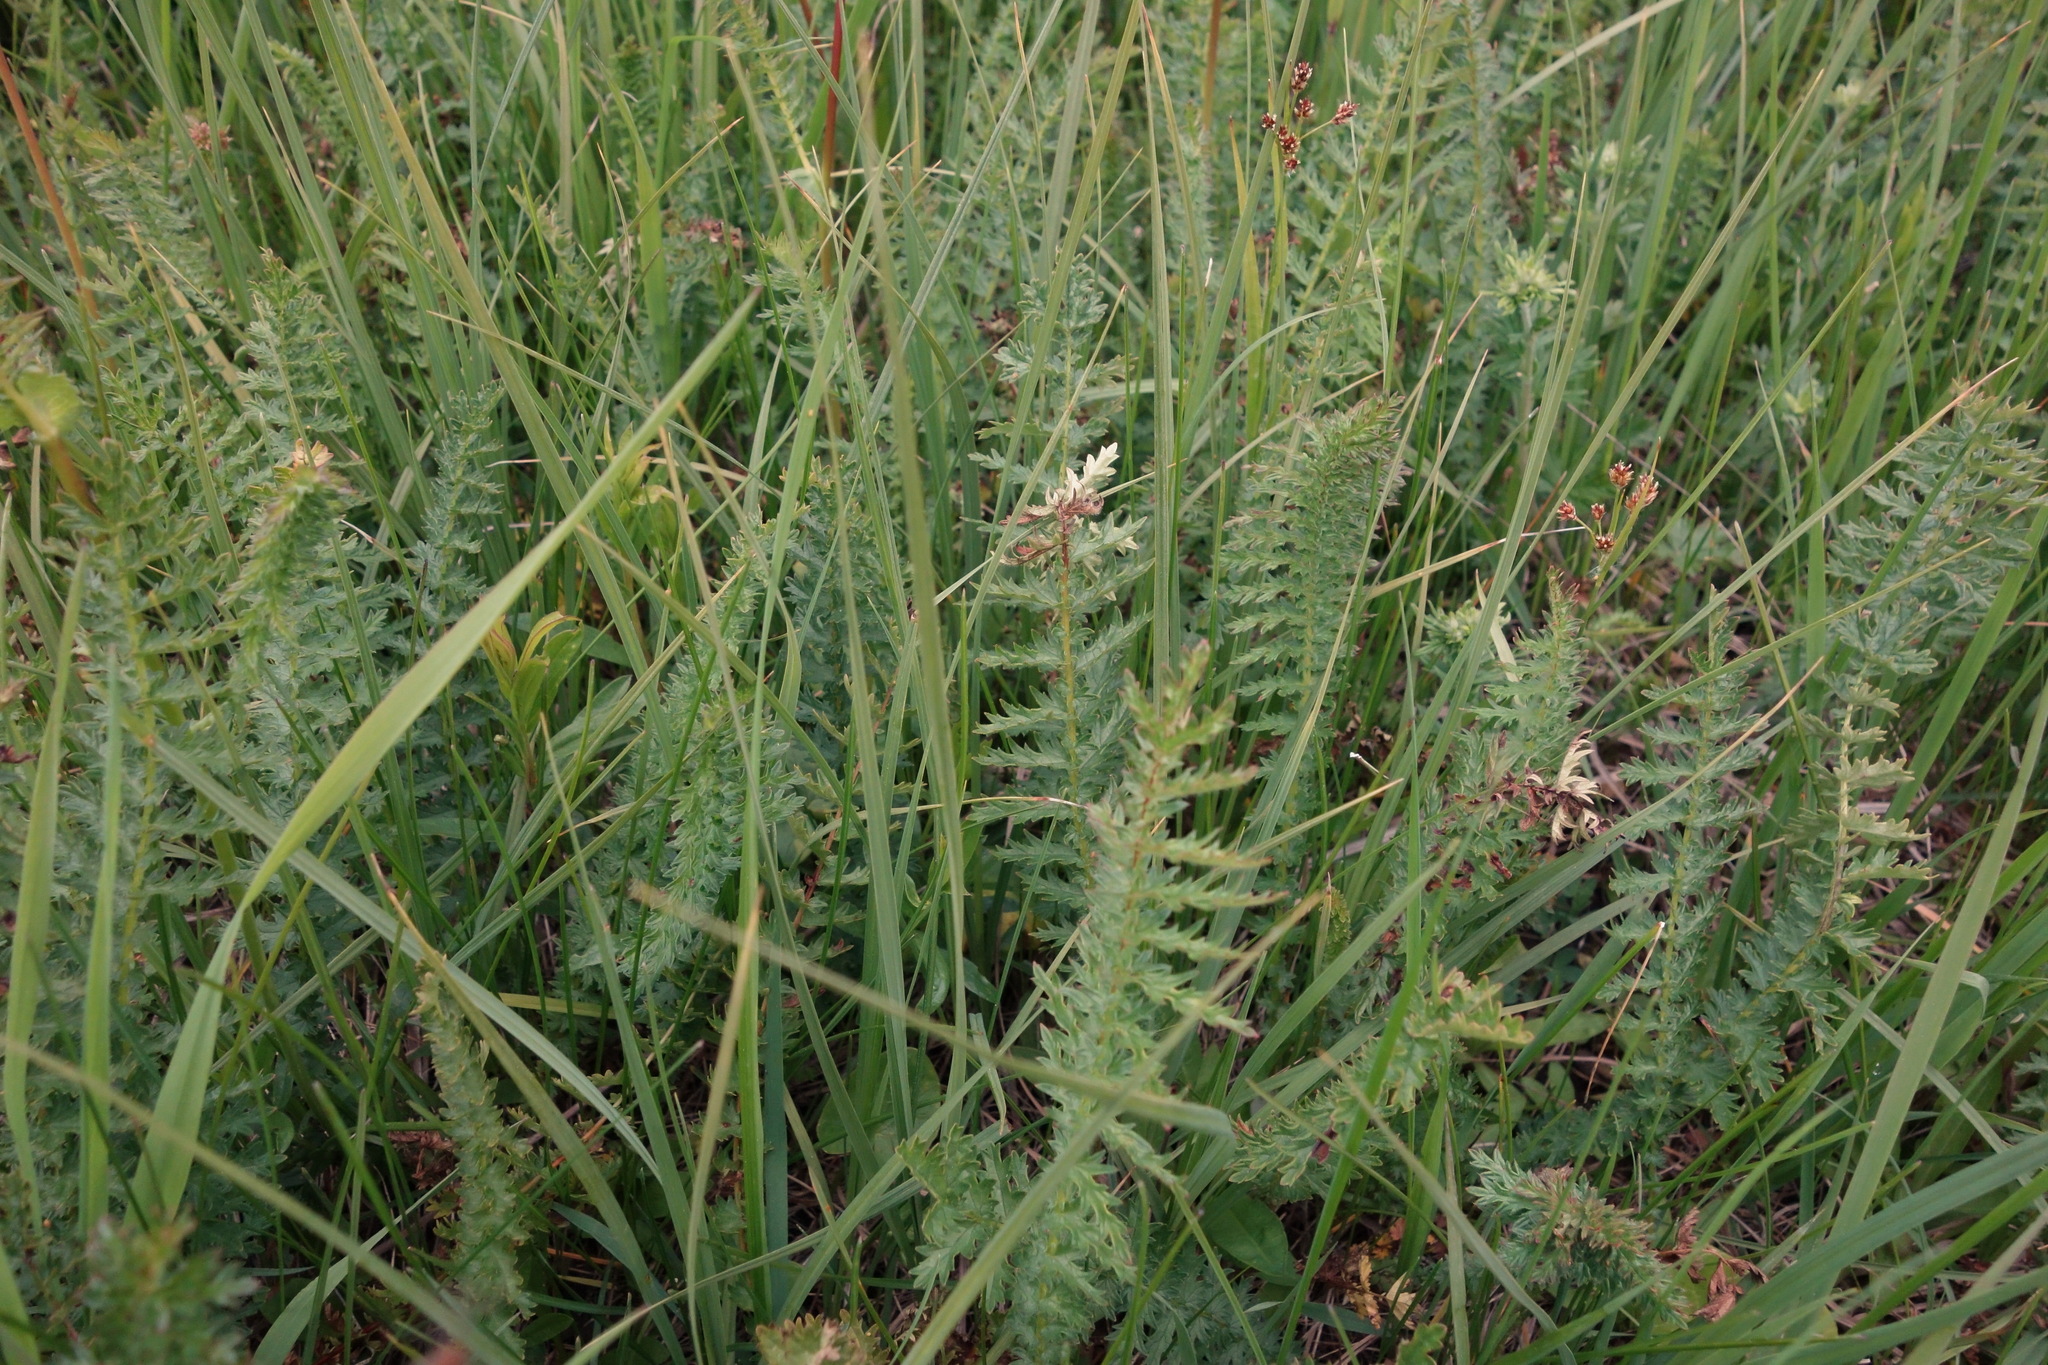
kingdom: Plantae
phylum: Tracheophyta
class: Magnoliopsida
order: Rosales
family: Rosaceae
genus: Filipendula
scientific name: Filipendula vulgaris
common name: Dropwort
